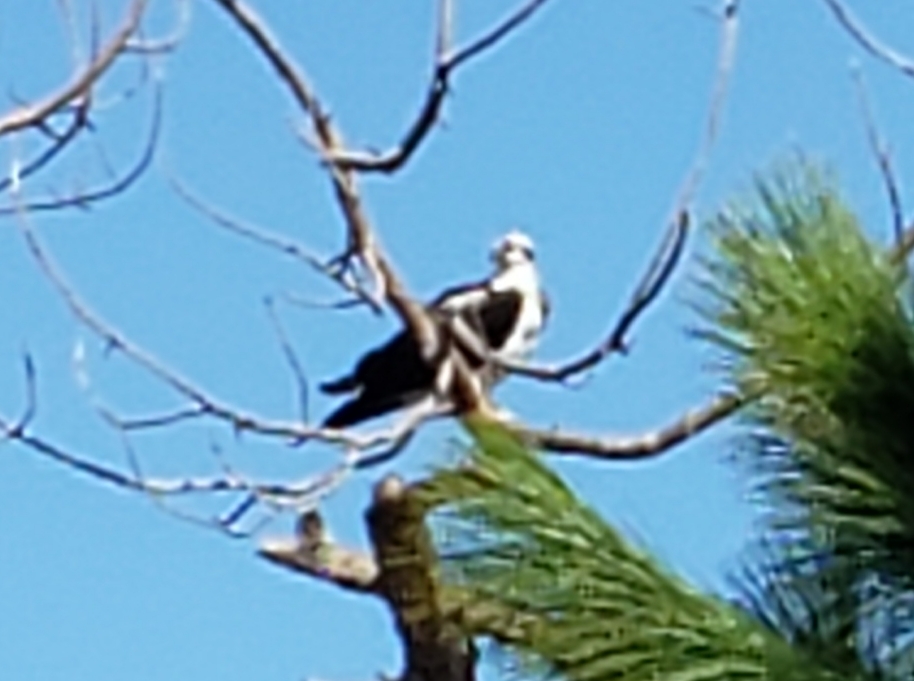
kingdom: Animalia
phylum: Chordata
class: Aves
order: Accipitriformes
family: Pandionidae
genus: Pandion
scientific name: Pandion haliaetus
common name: Osprey
